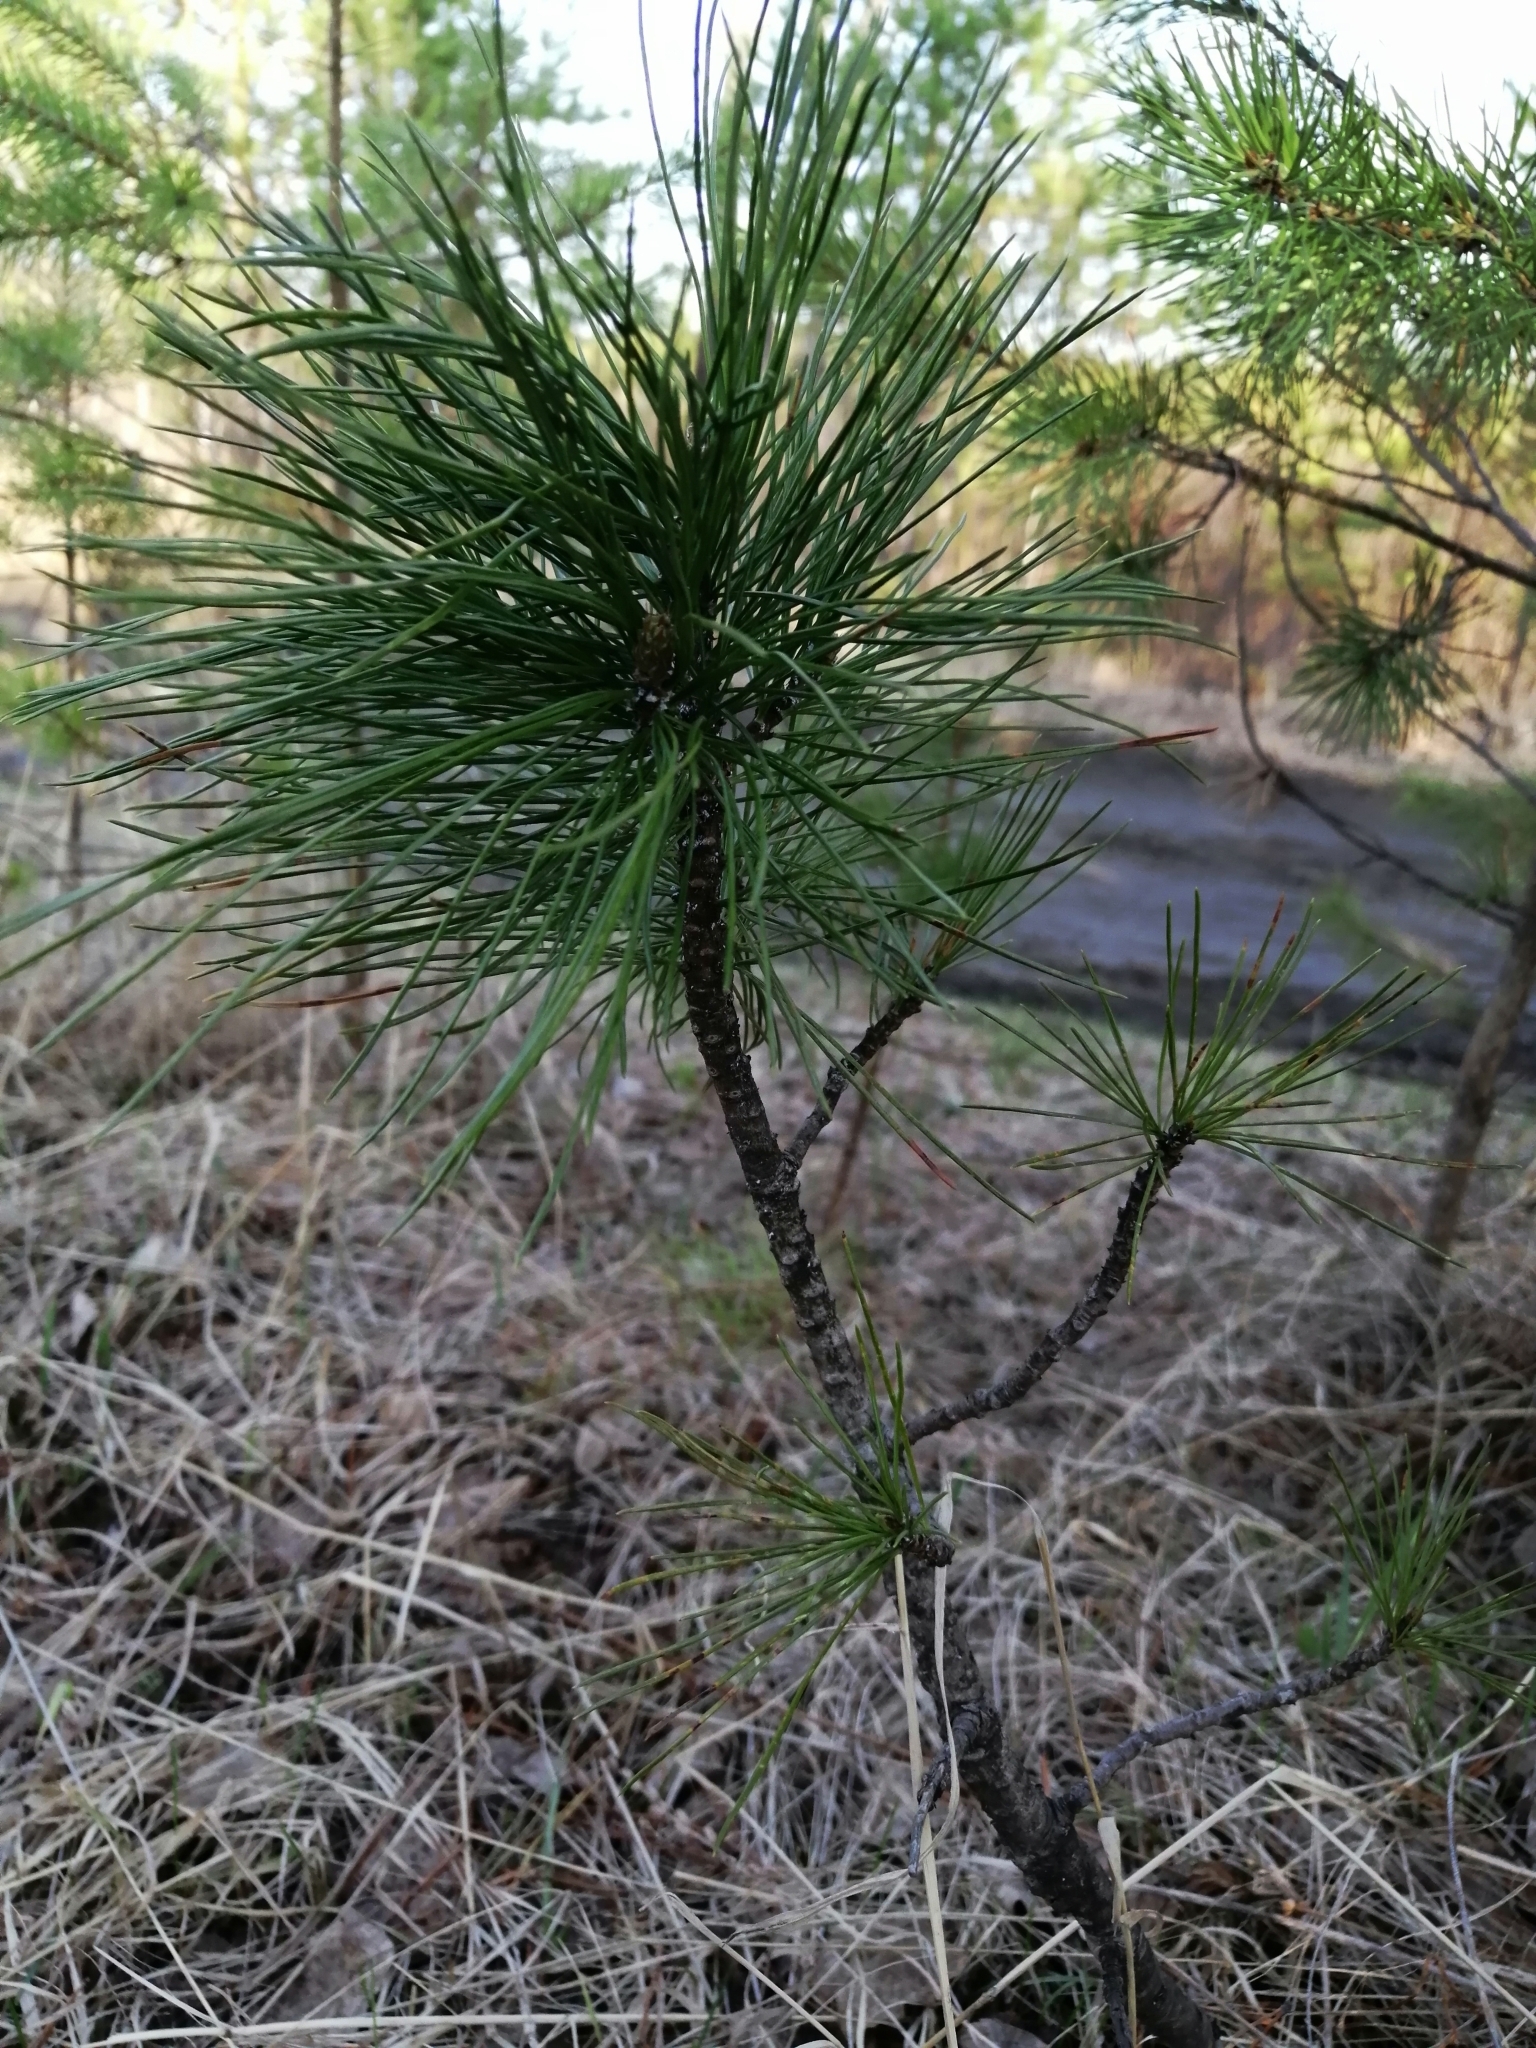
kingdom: Plantae
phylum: Tracheophyta
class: Pinopsida
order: Pinales
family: Pinaceae
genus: Pinus
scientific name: Pinus sibirica
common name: Siberian pine
